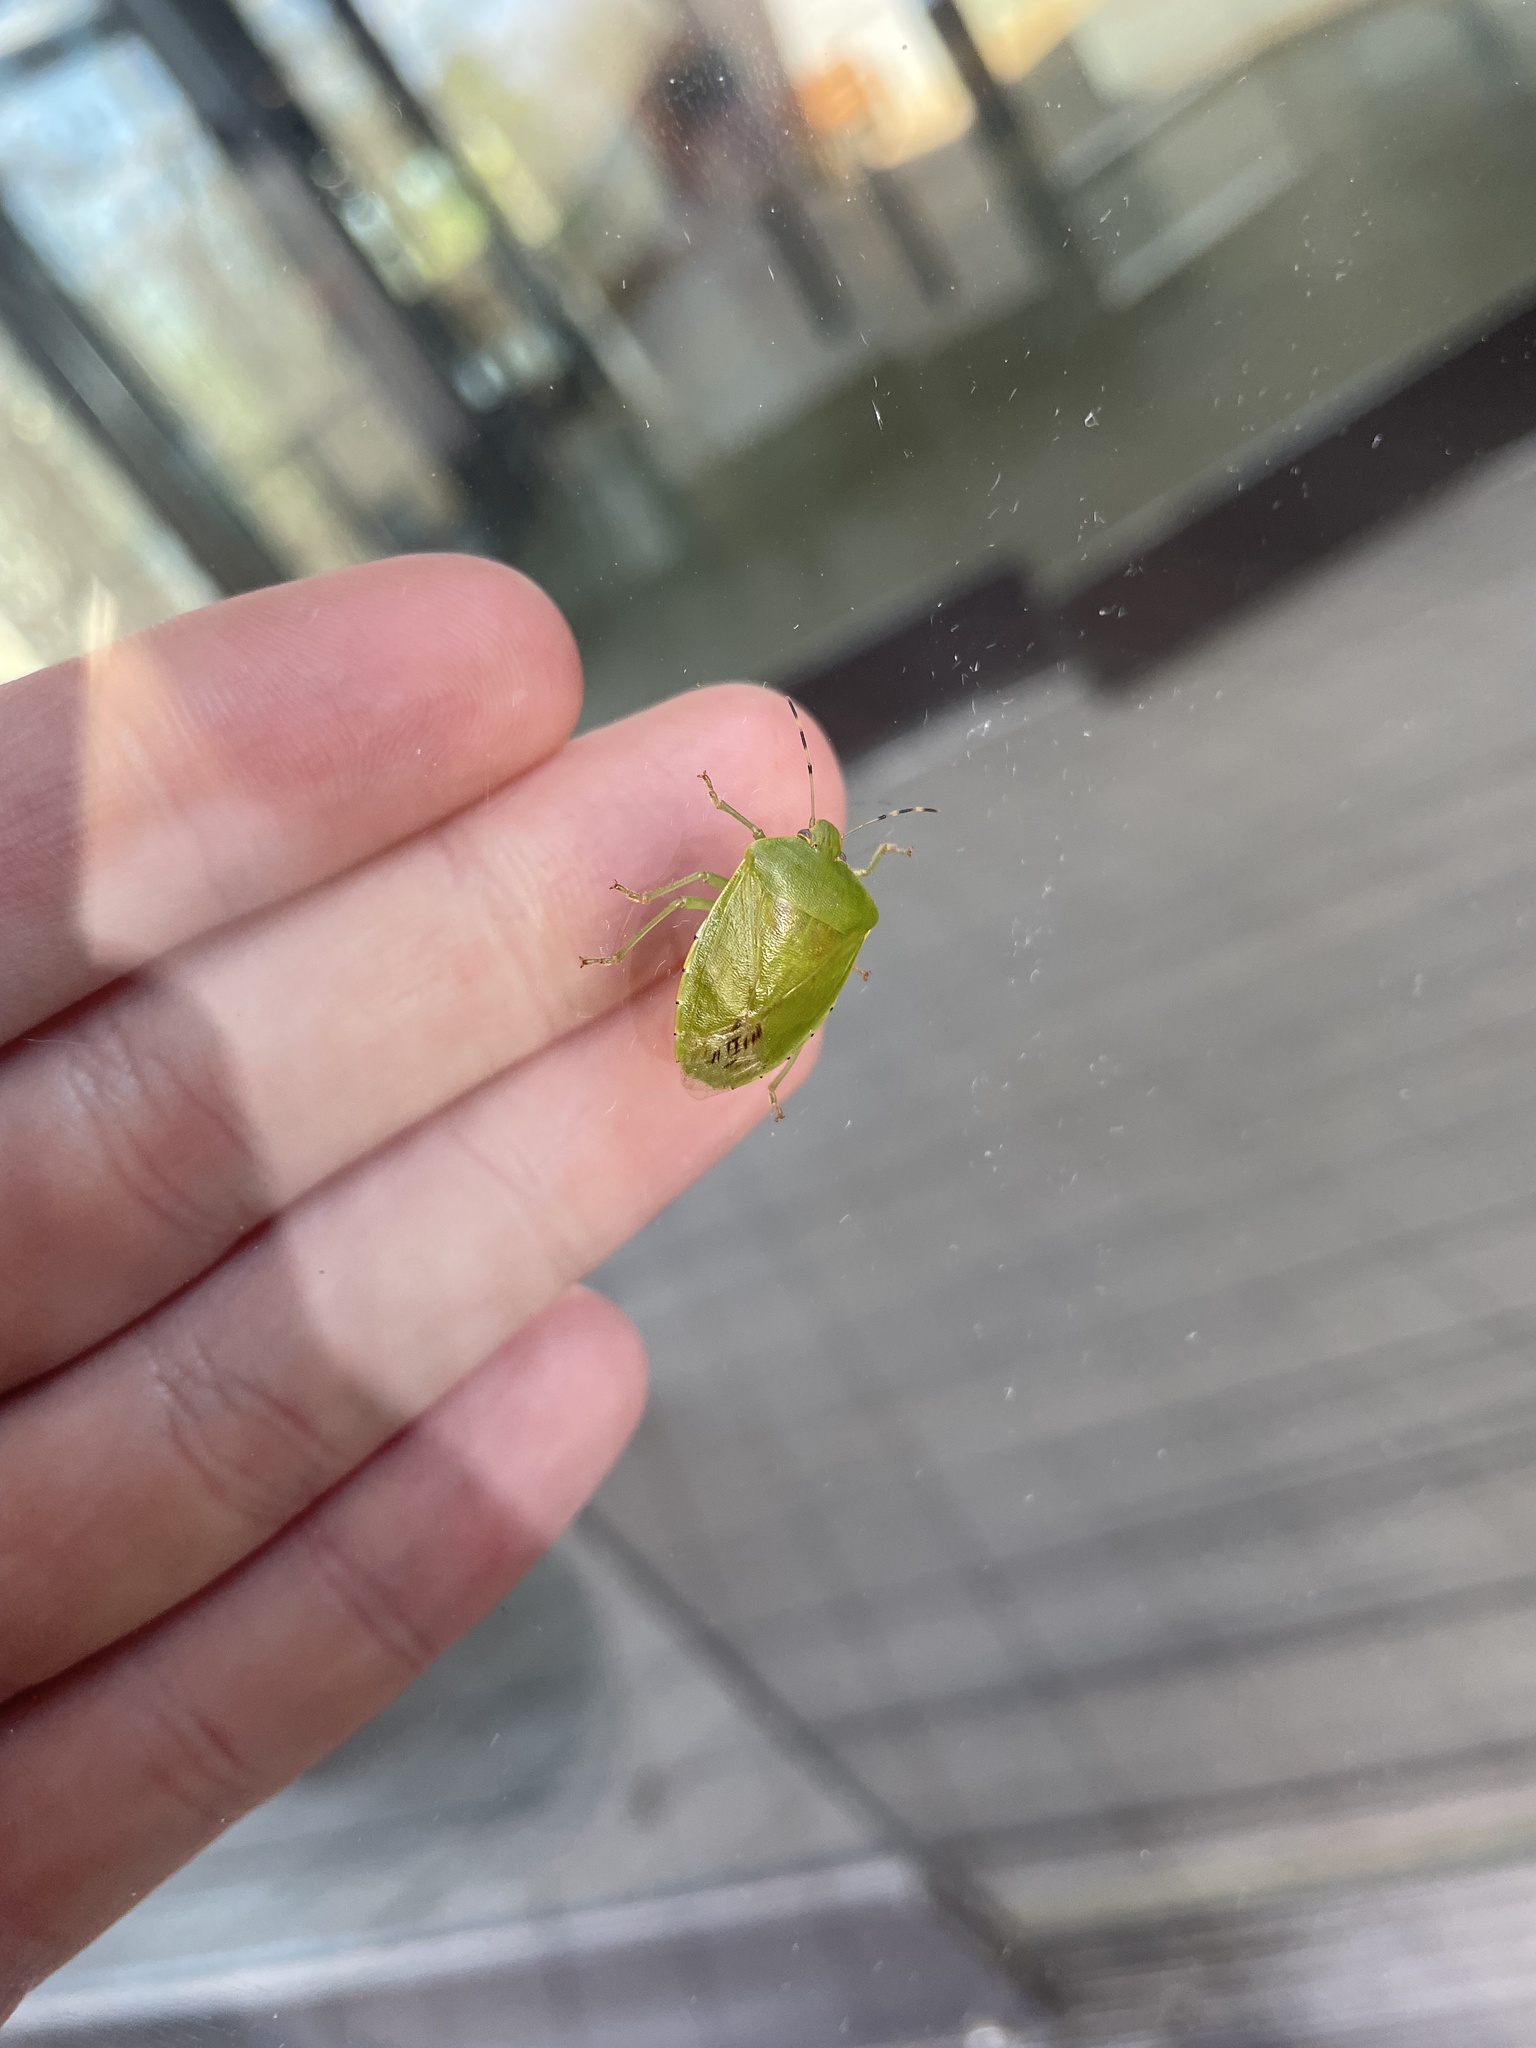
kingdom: Animalia
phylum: Arthropoda
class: Insecta
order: Hemiptera
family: Pentatomidae
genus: Chinavia
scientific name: Chinavia hilaris
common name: Green stink bug
